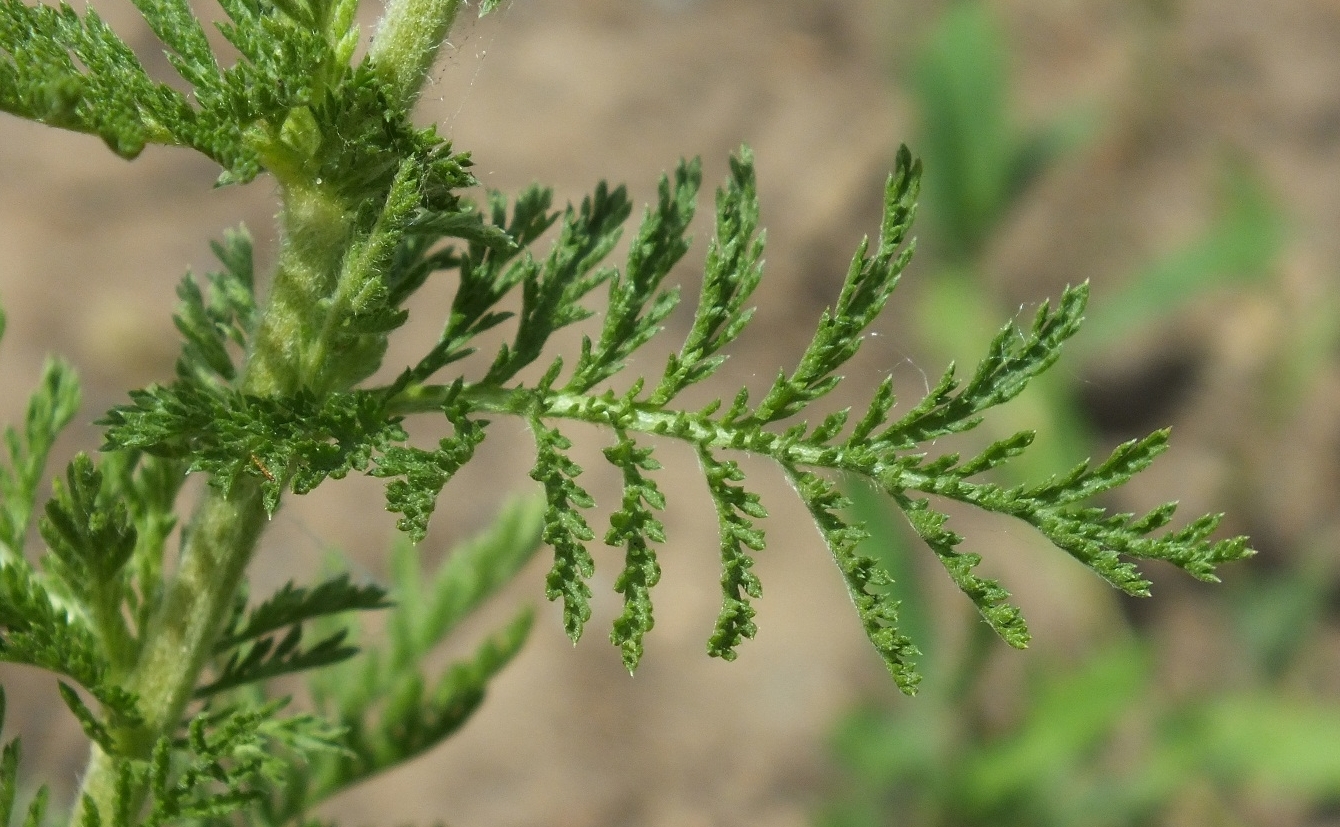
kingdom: Plantae
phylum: Tracheophyta
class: Magnoliopsida
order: Asterales
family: Asteraceae
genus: Achillea
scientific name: Achillea nobilis
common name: Noble yarrow
